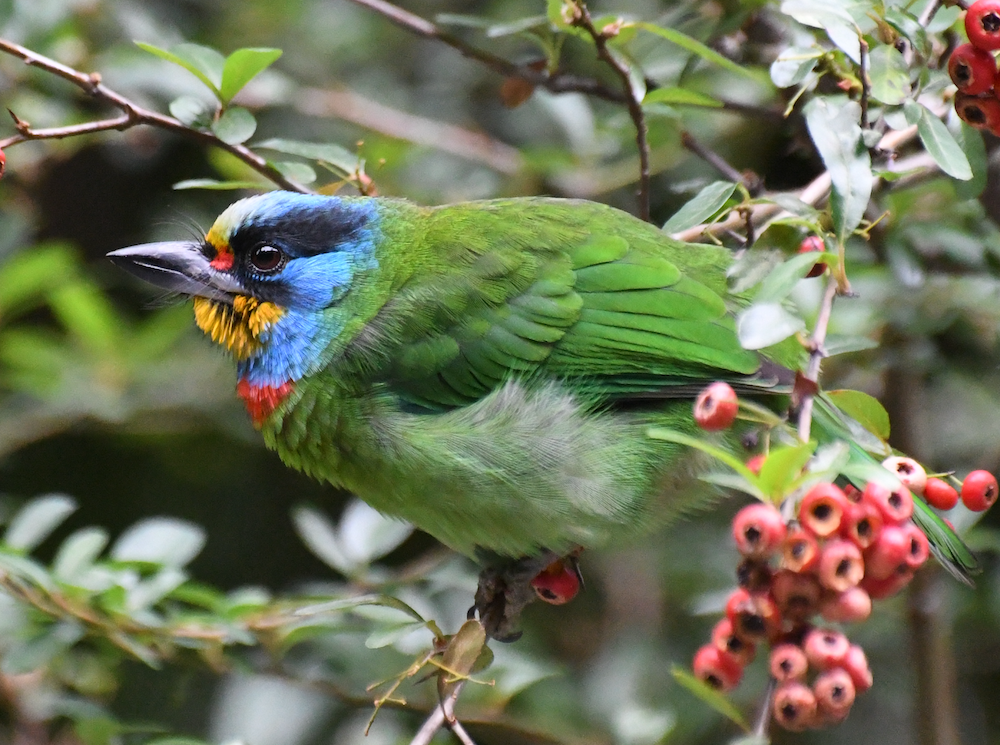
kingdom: Animalia
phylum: Chordata
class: Aves
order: Piciformes
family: Megalaimidae
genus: Psilopogon
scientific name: Psilopogon nuchalis
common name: Taiwan barbet
